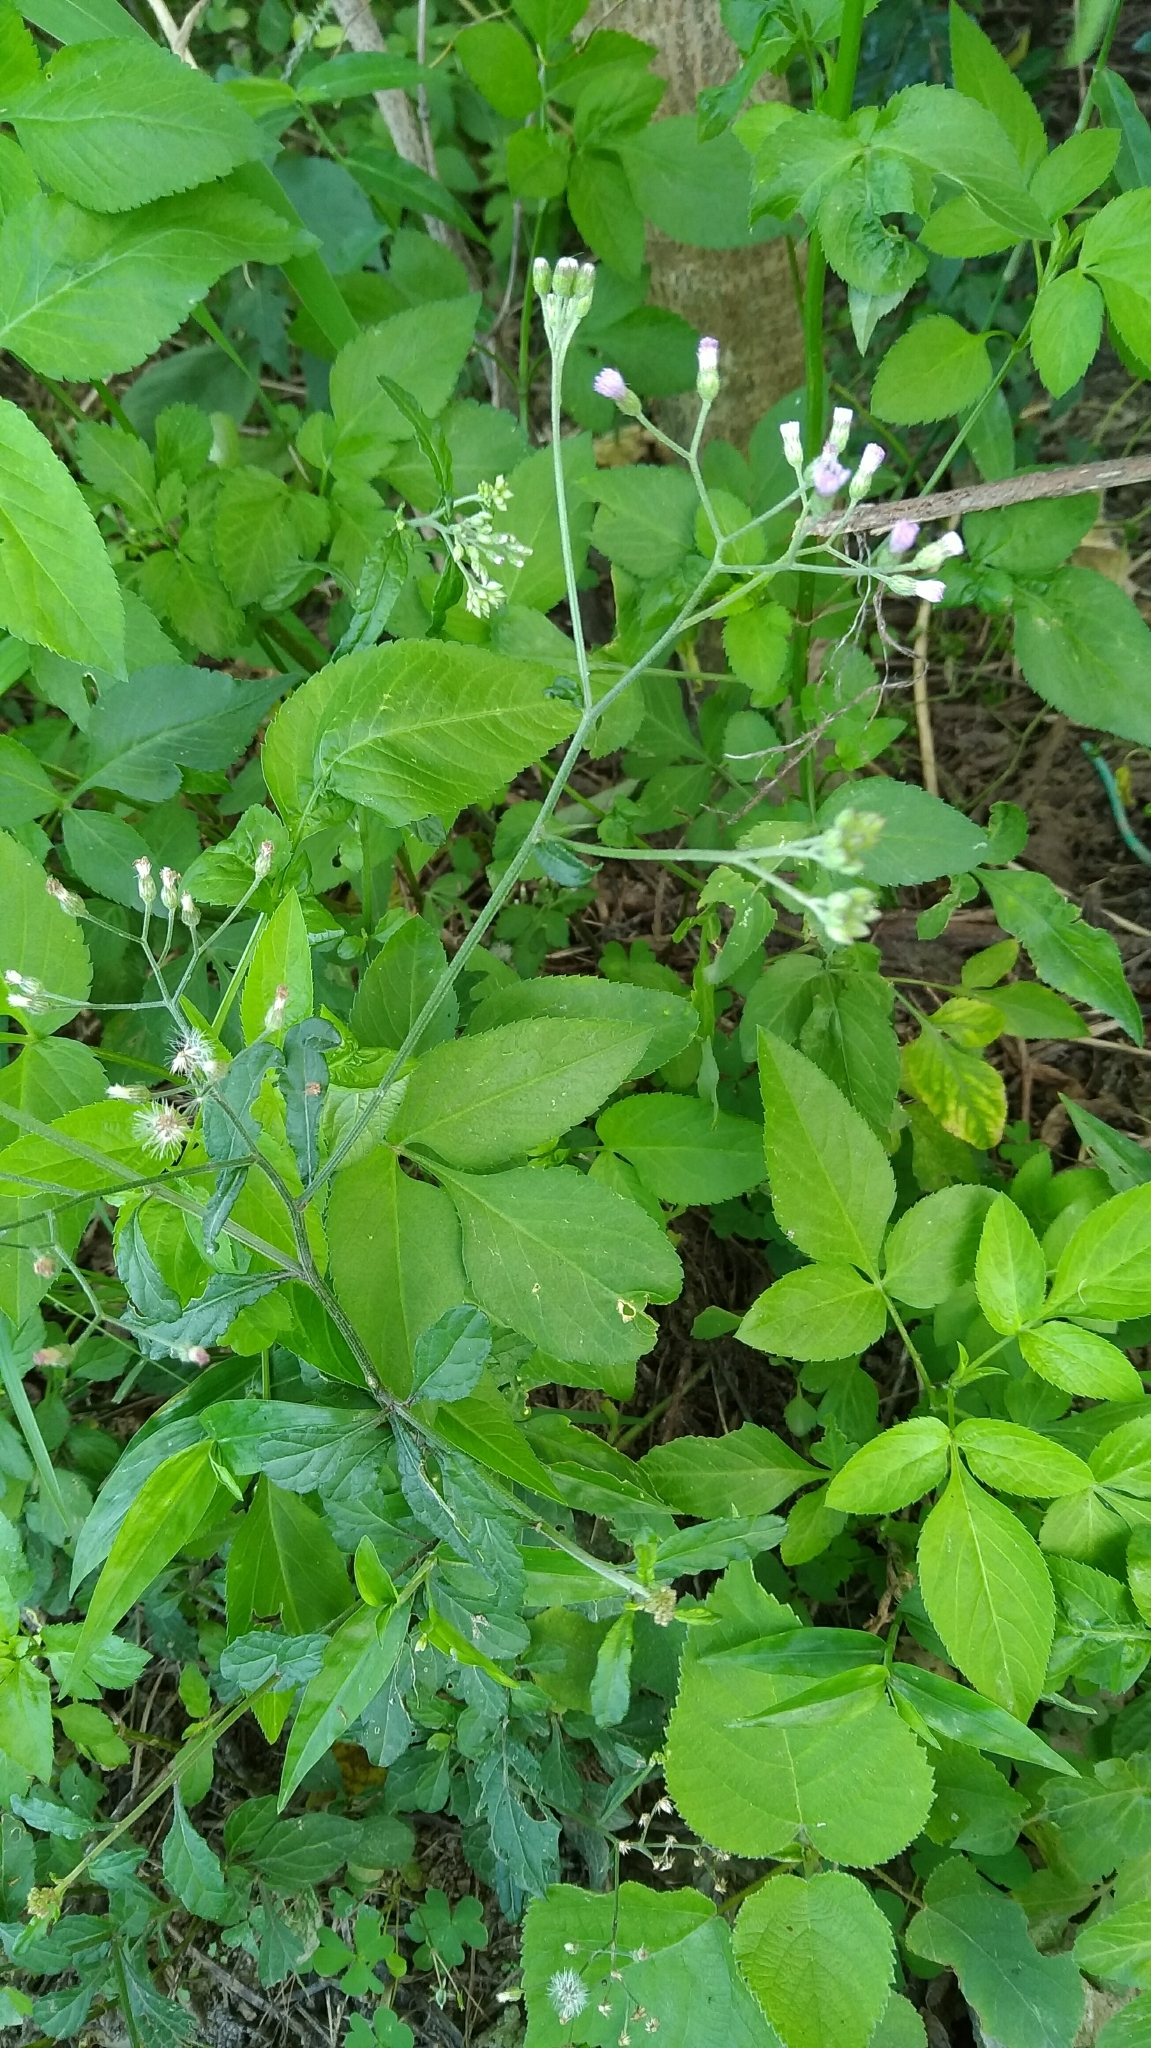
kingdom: Plantae
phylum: Tracheophyta
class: Magnoliopsida
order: Asterales
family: Asteraceae
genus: Cyanthillium
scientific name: Cyanthillium cinereum
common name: Little ironweed
